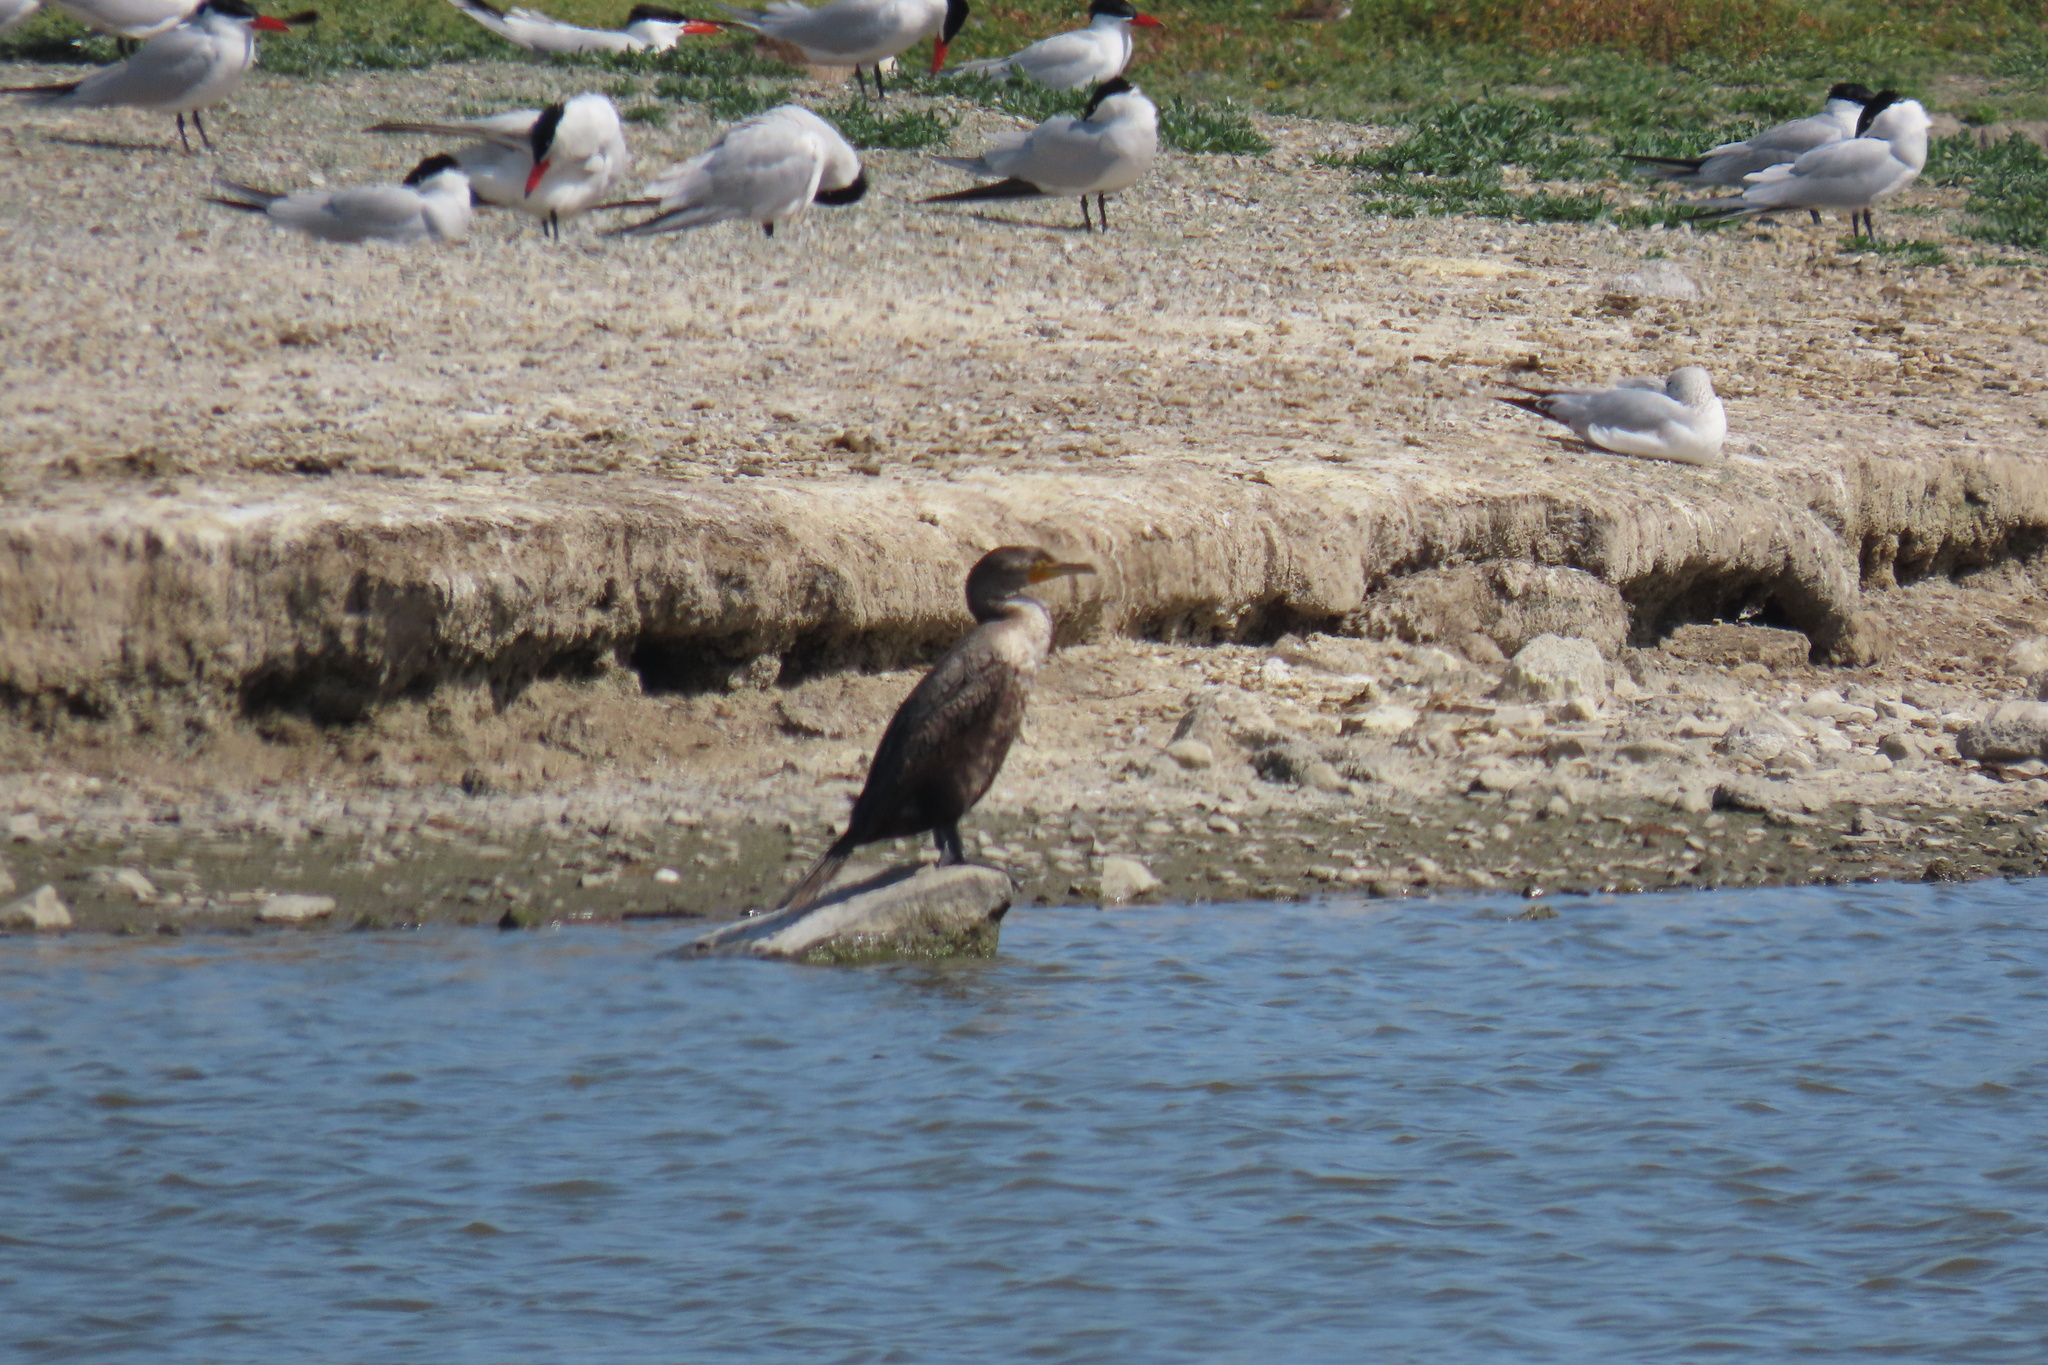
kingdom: Animalia
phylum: Chordata
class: Aves
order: Suliformes
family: Phalacrocoracidae
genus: Phalacrocorax
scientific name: Phalacrocorax auritus
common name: Double-crested cormorant
